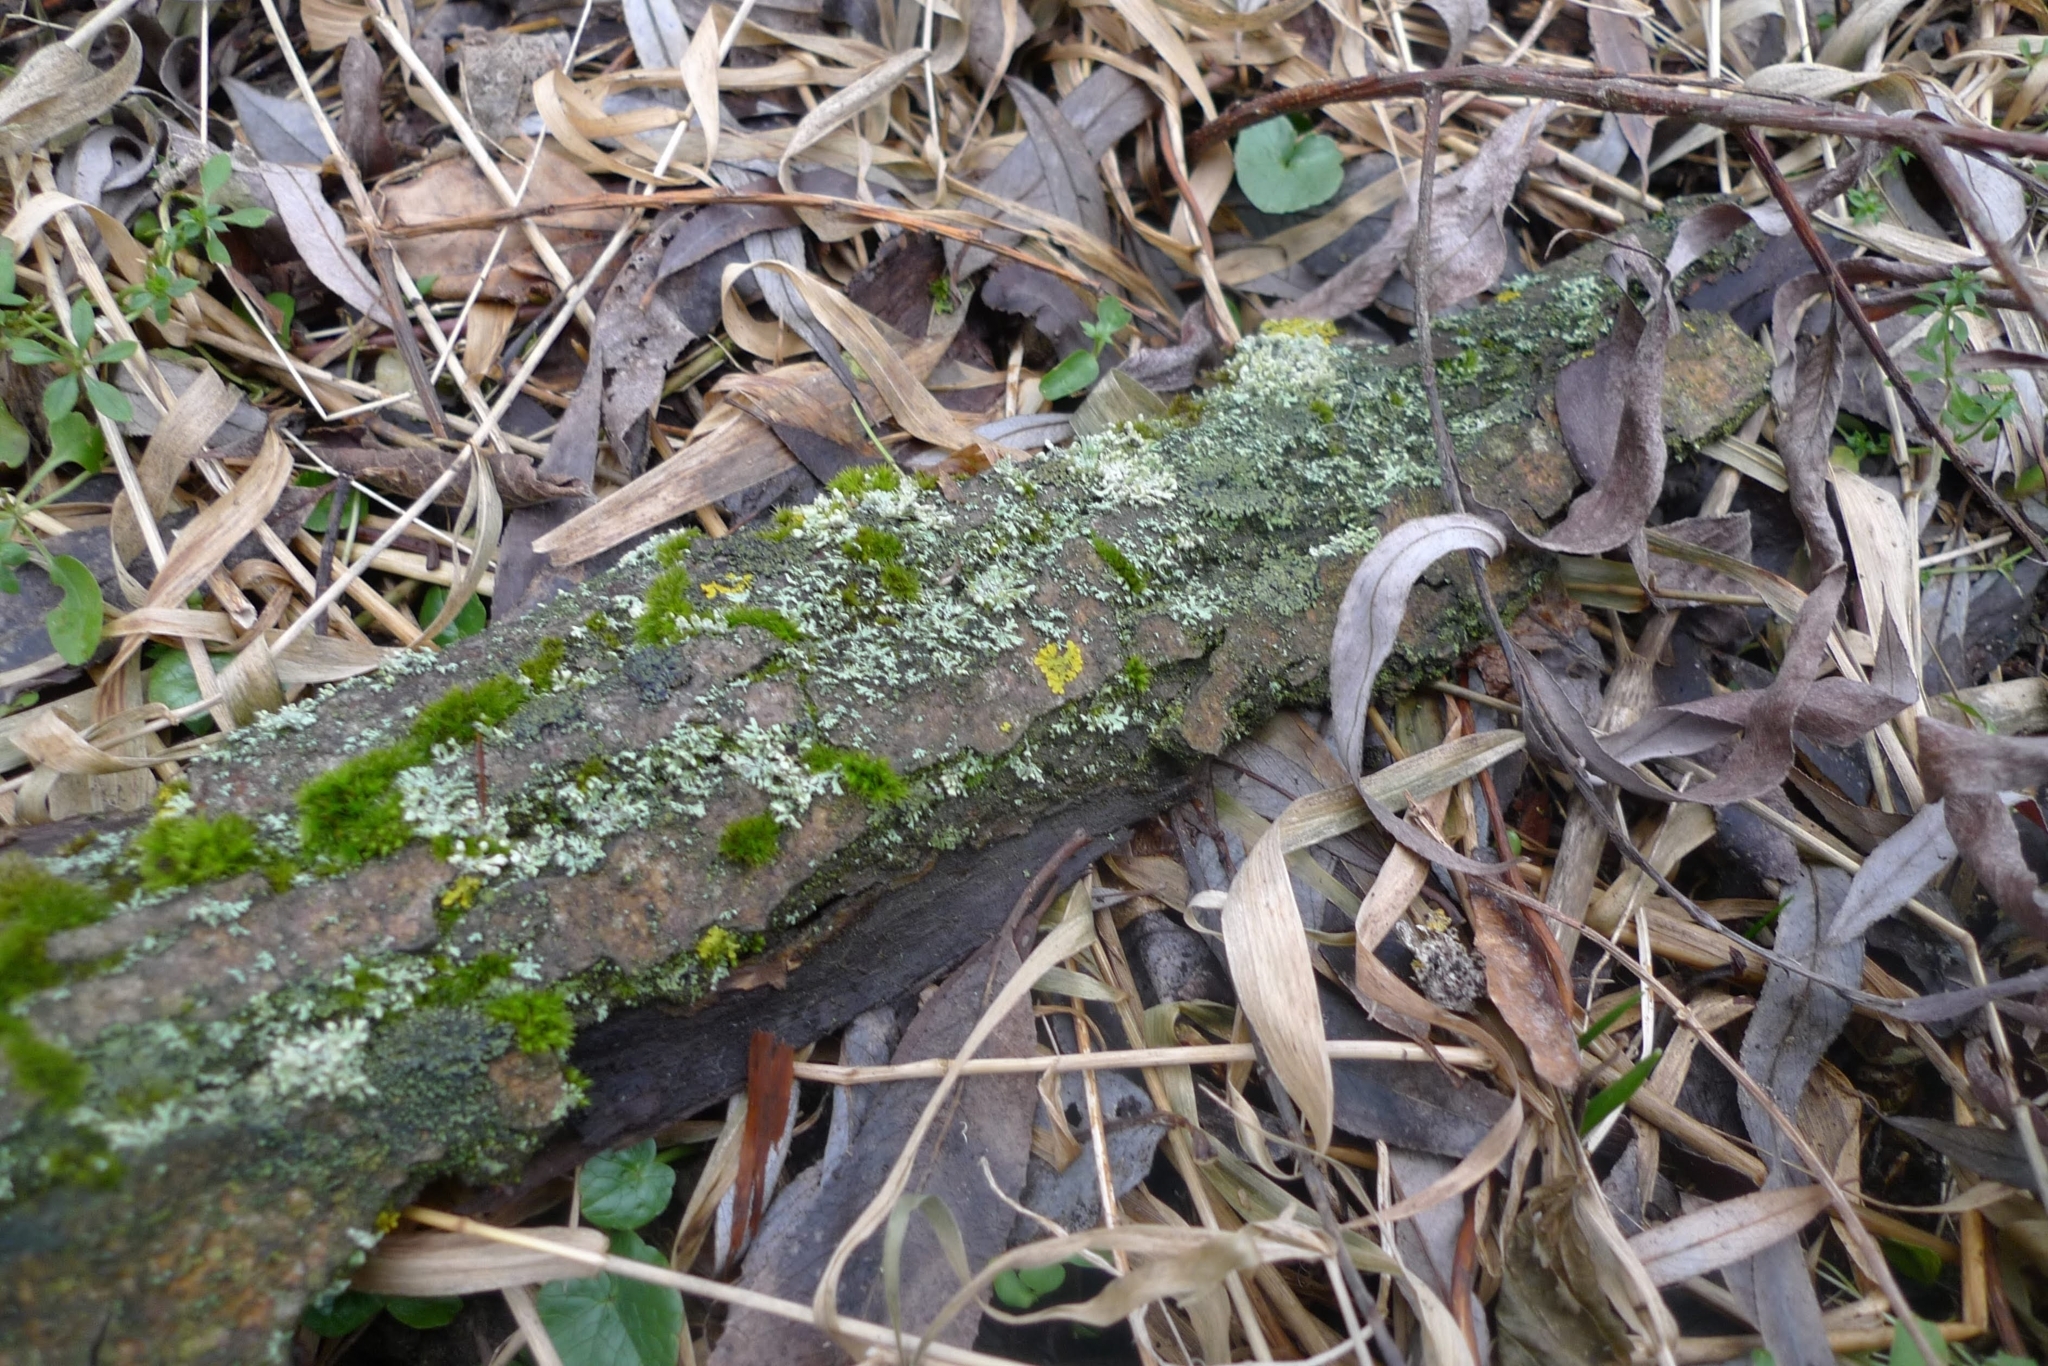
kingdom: Fungi
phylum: Ascomycota
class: Lecanoromycetes
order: Caliciales
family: Physciaceae
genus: Physcia
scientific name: Physcia adscendens
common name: Hooded rosette lichen
